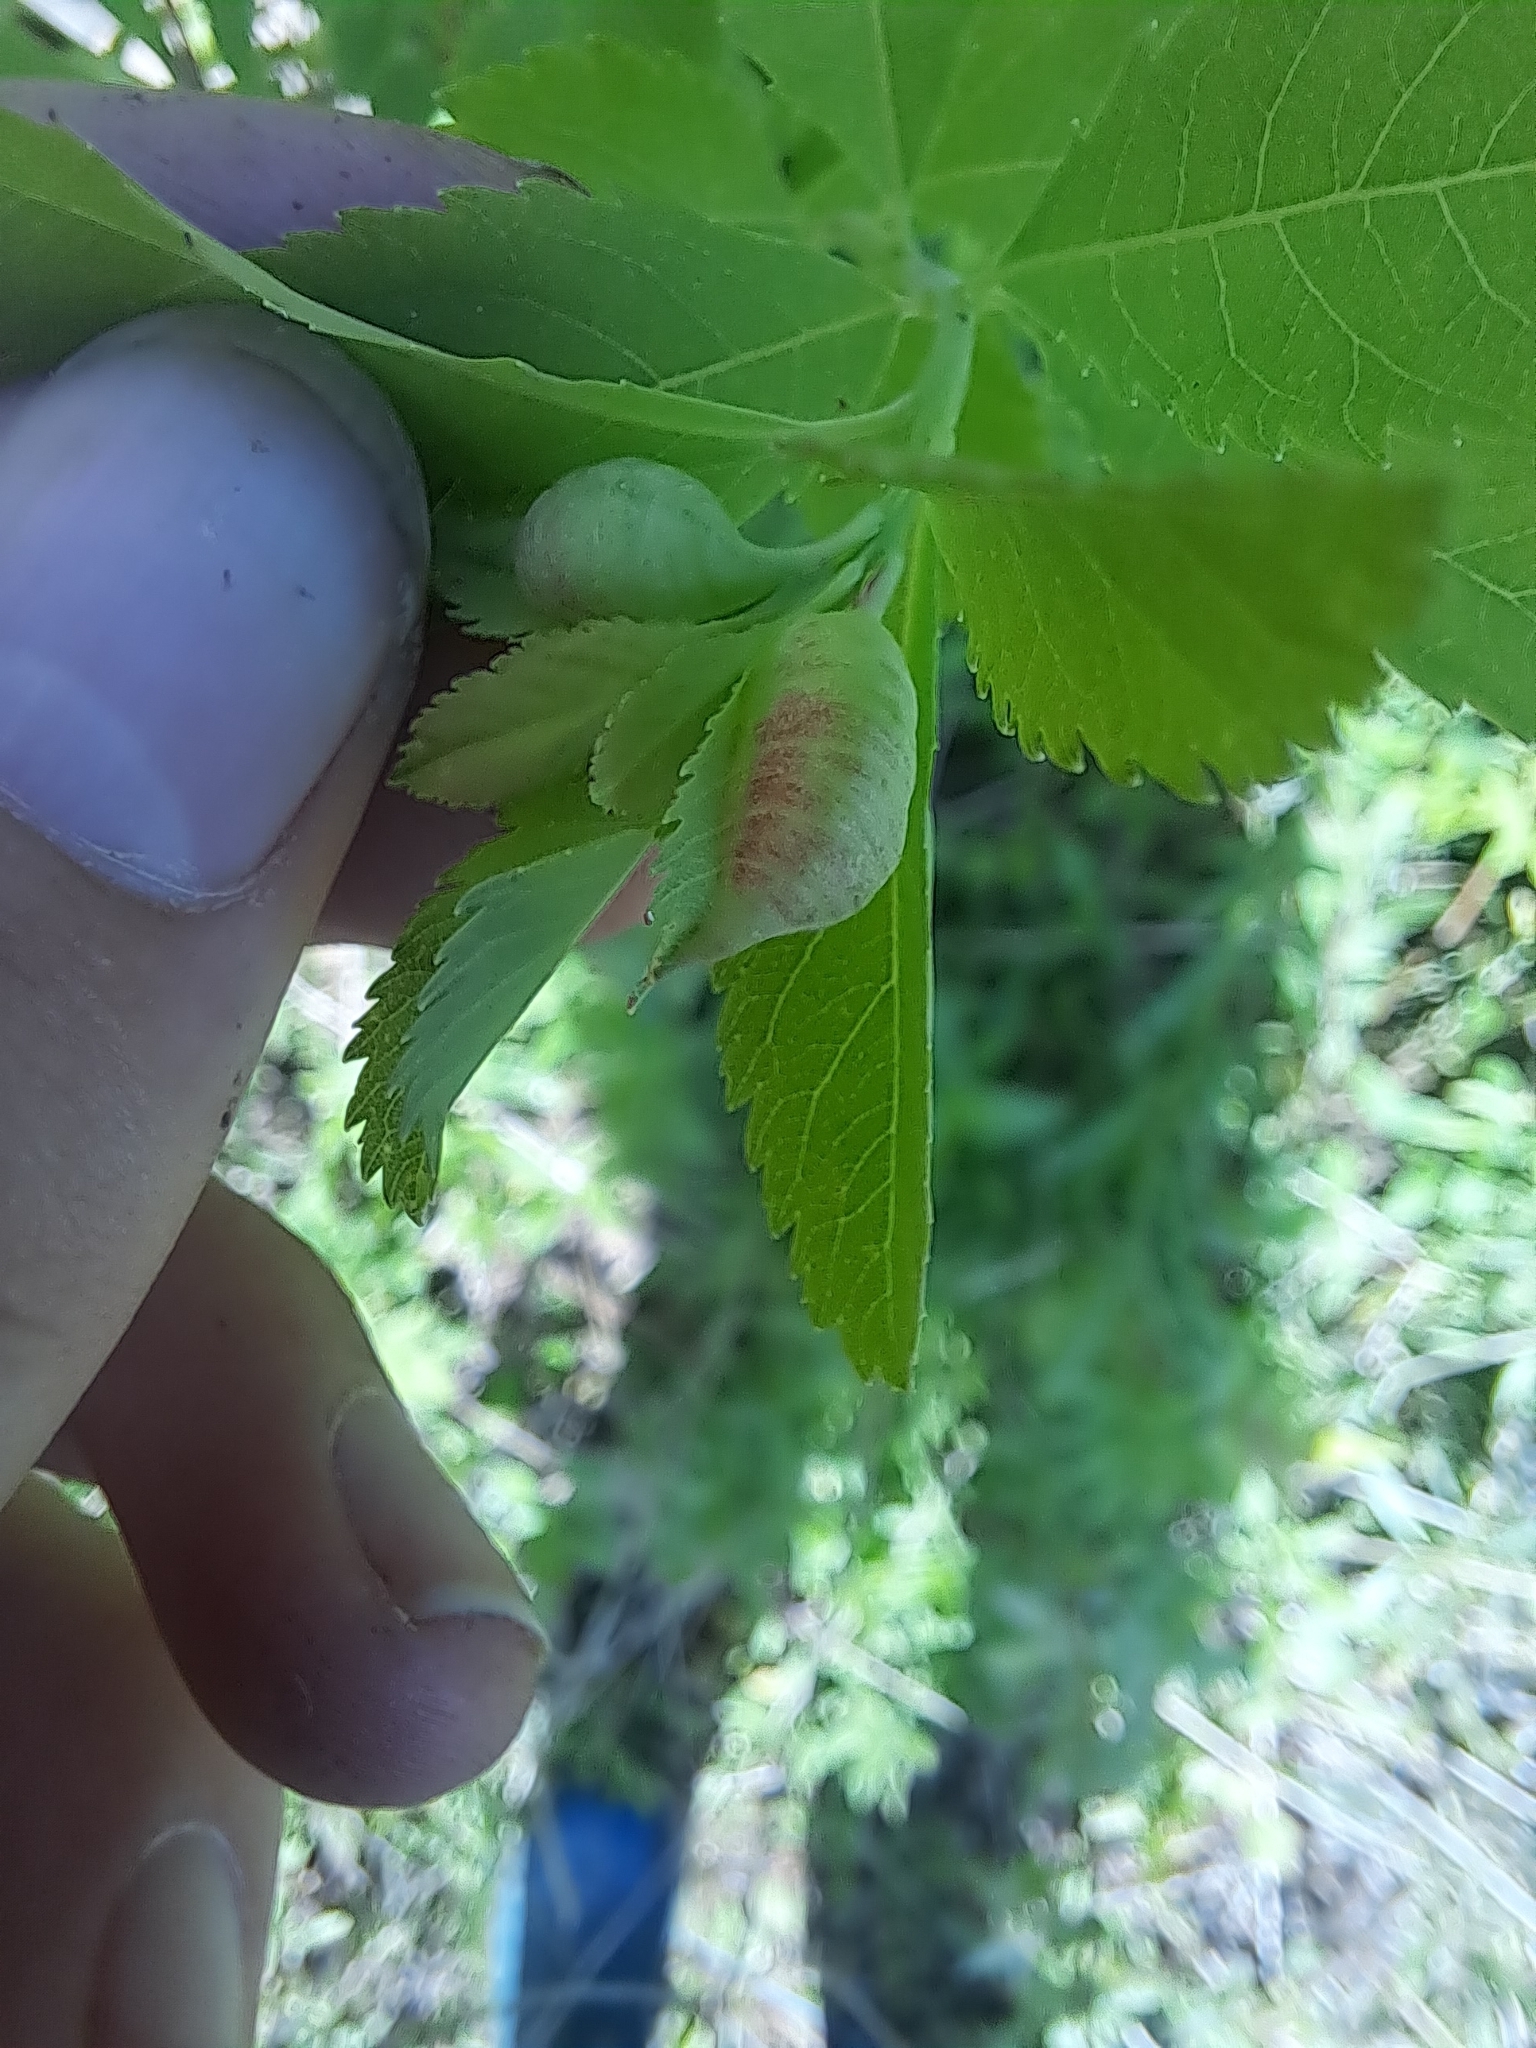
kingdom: Animalia
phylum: Arthropoda
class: Insecta
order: Diptera
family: Cecidomyiidae
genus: Dasineura
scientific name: Dasineura salicifoliae
